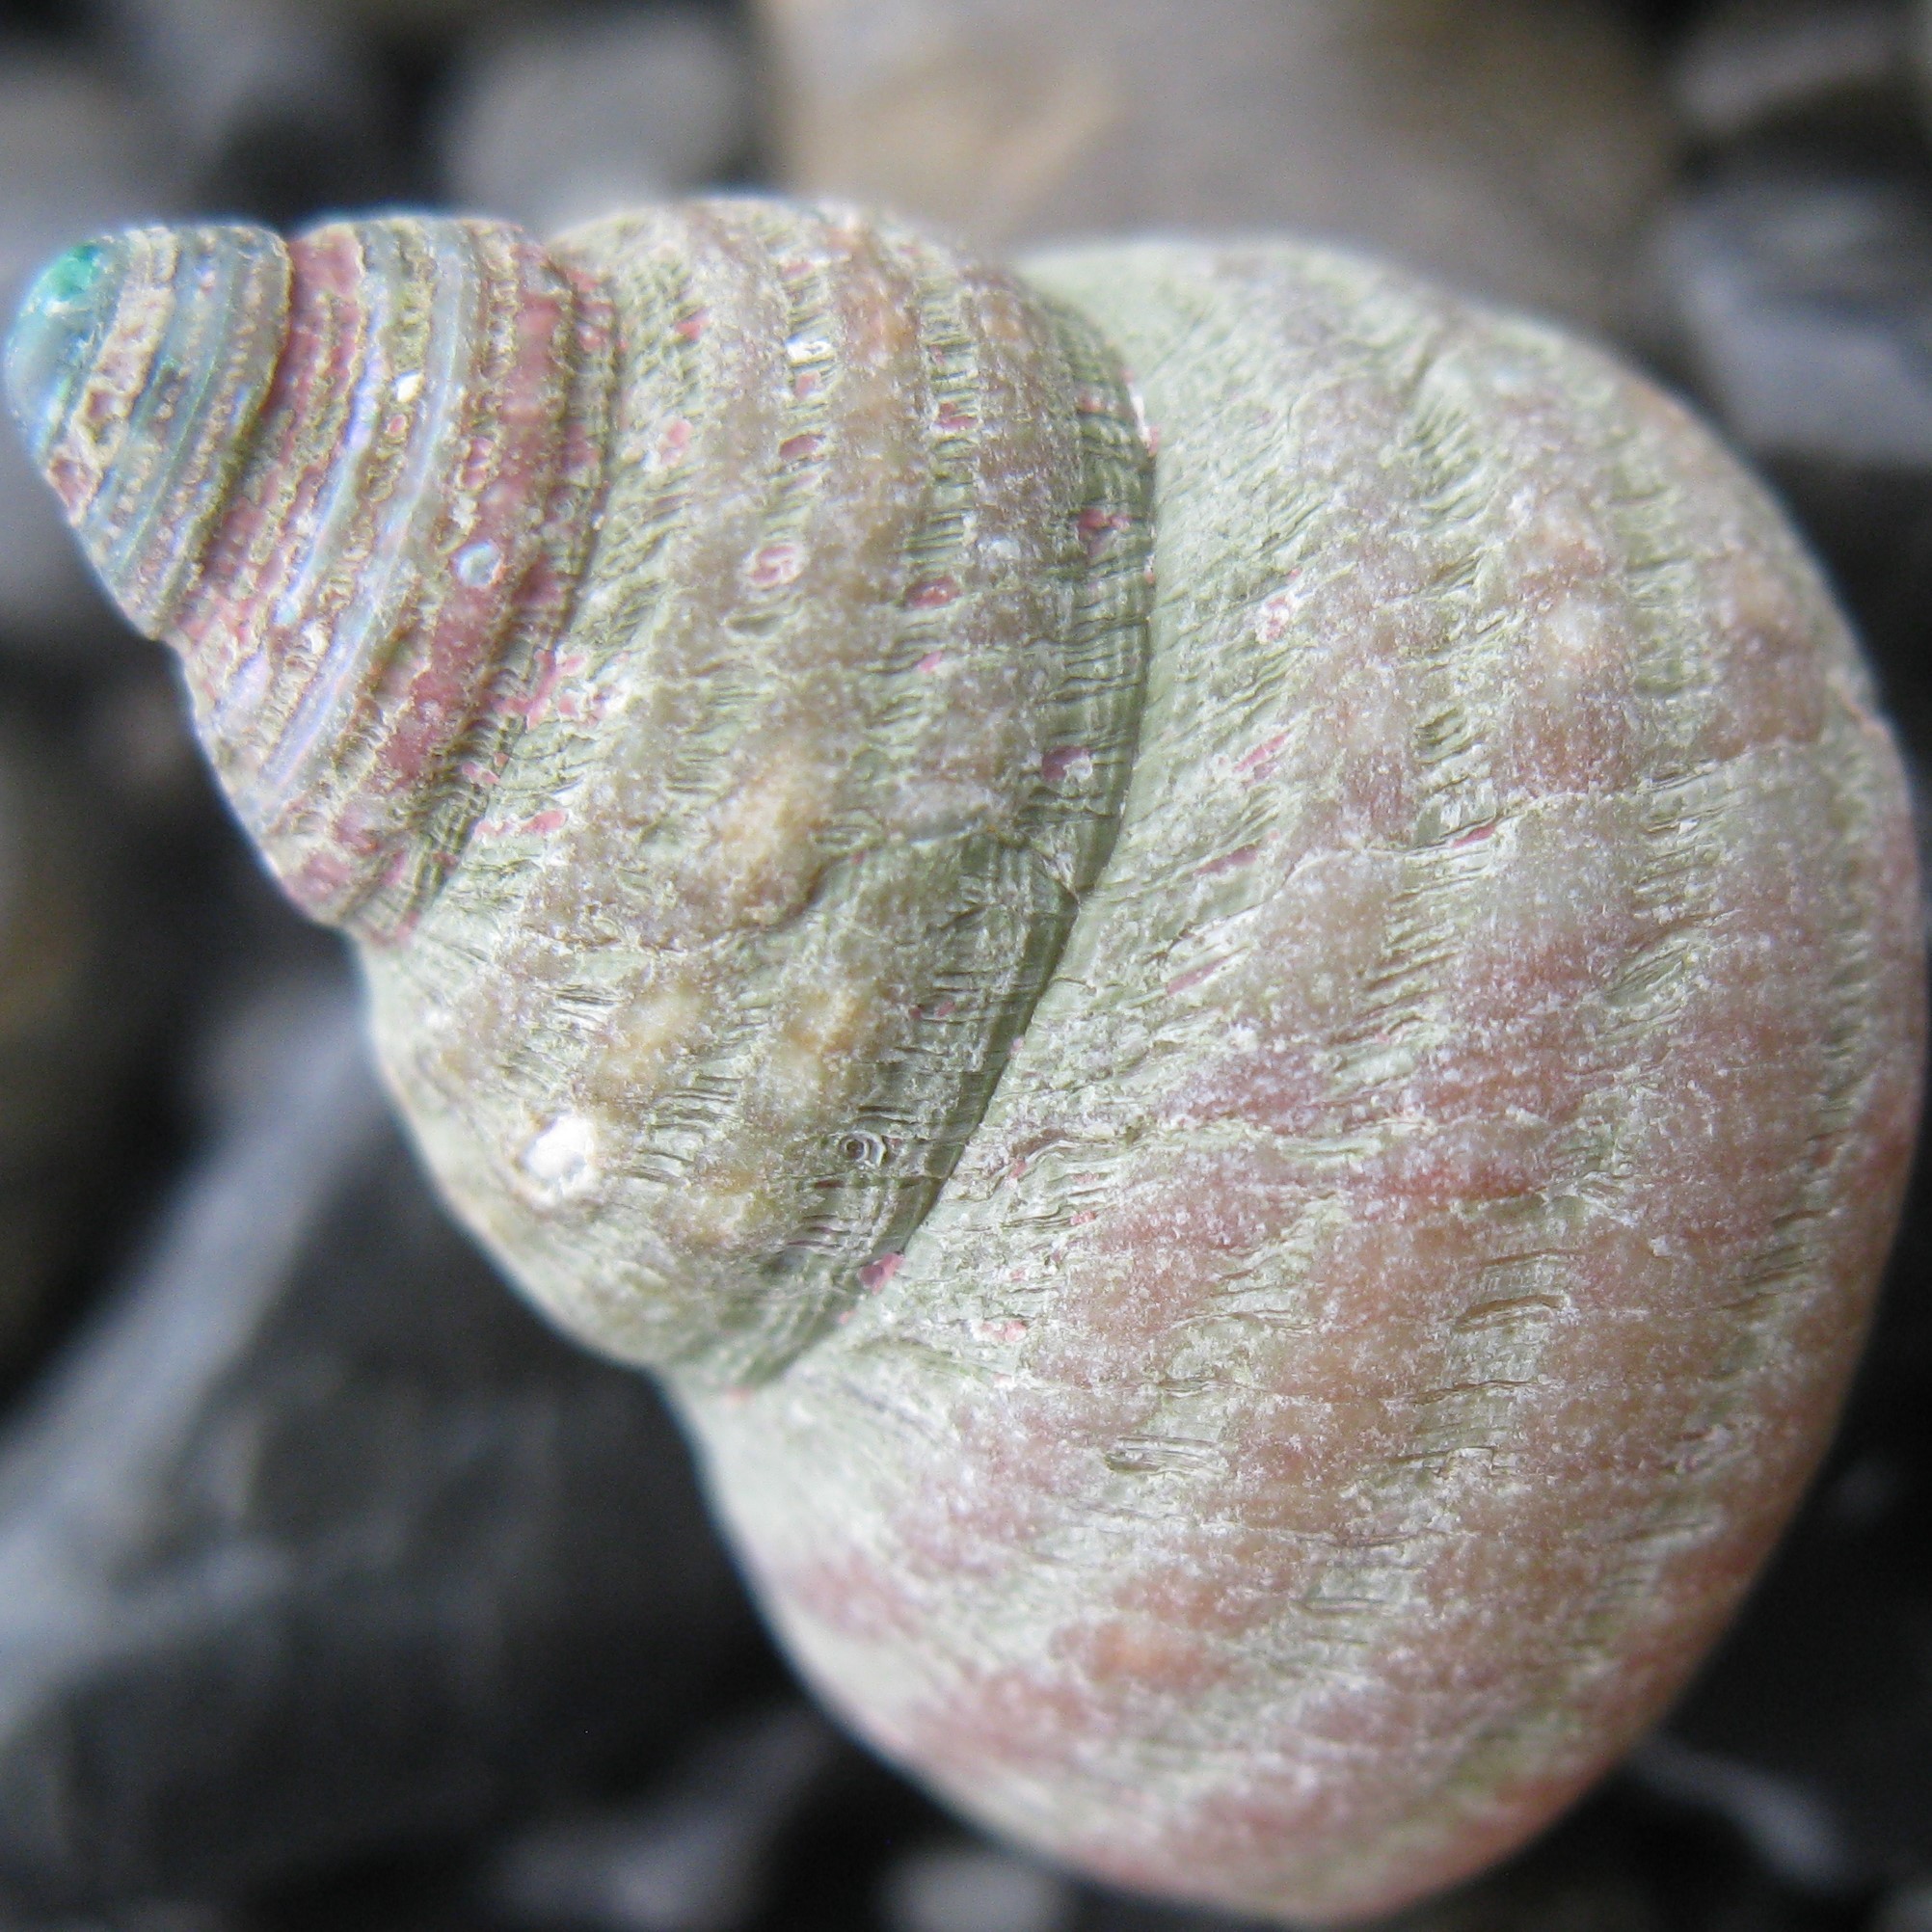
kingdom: Animalia
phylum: Mollusca
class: Gastropoda
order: Trochida
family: Trochidae
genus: Micrelenchus
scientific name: Micrelenchus purpureus
